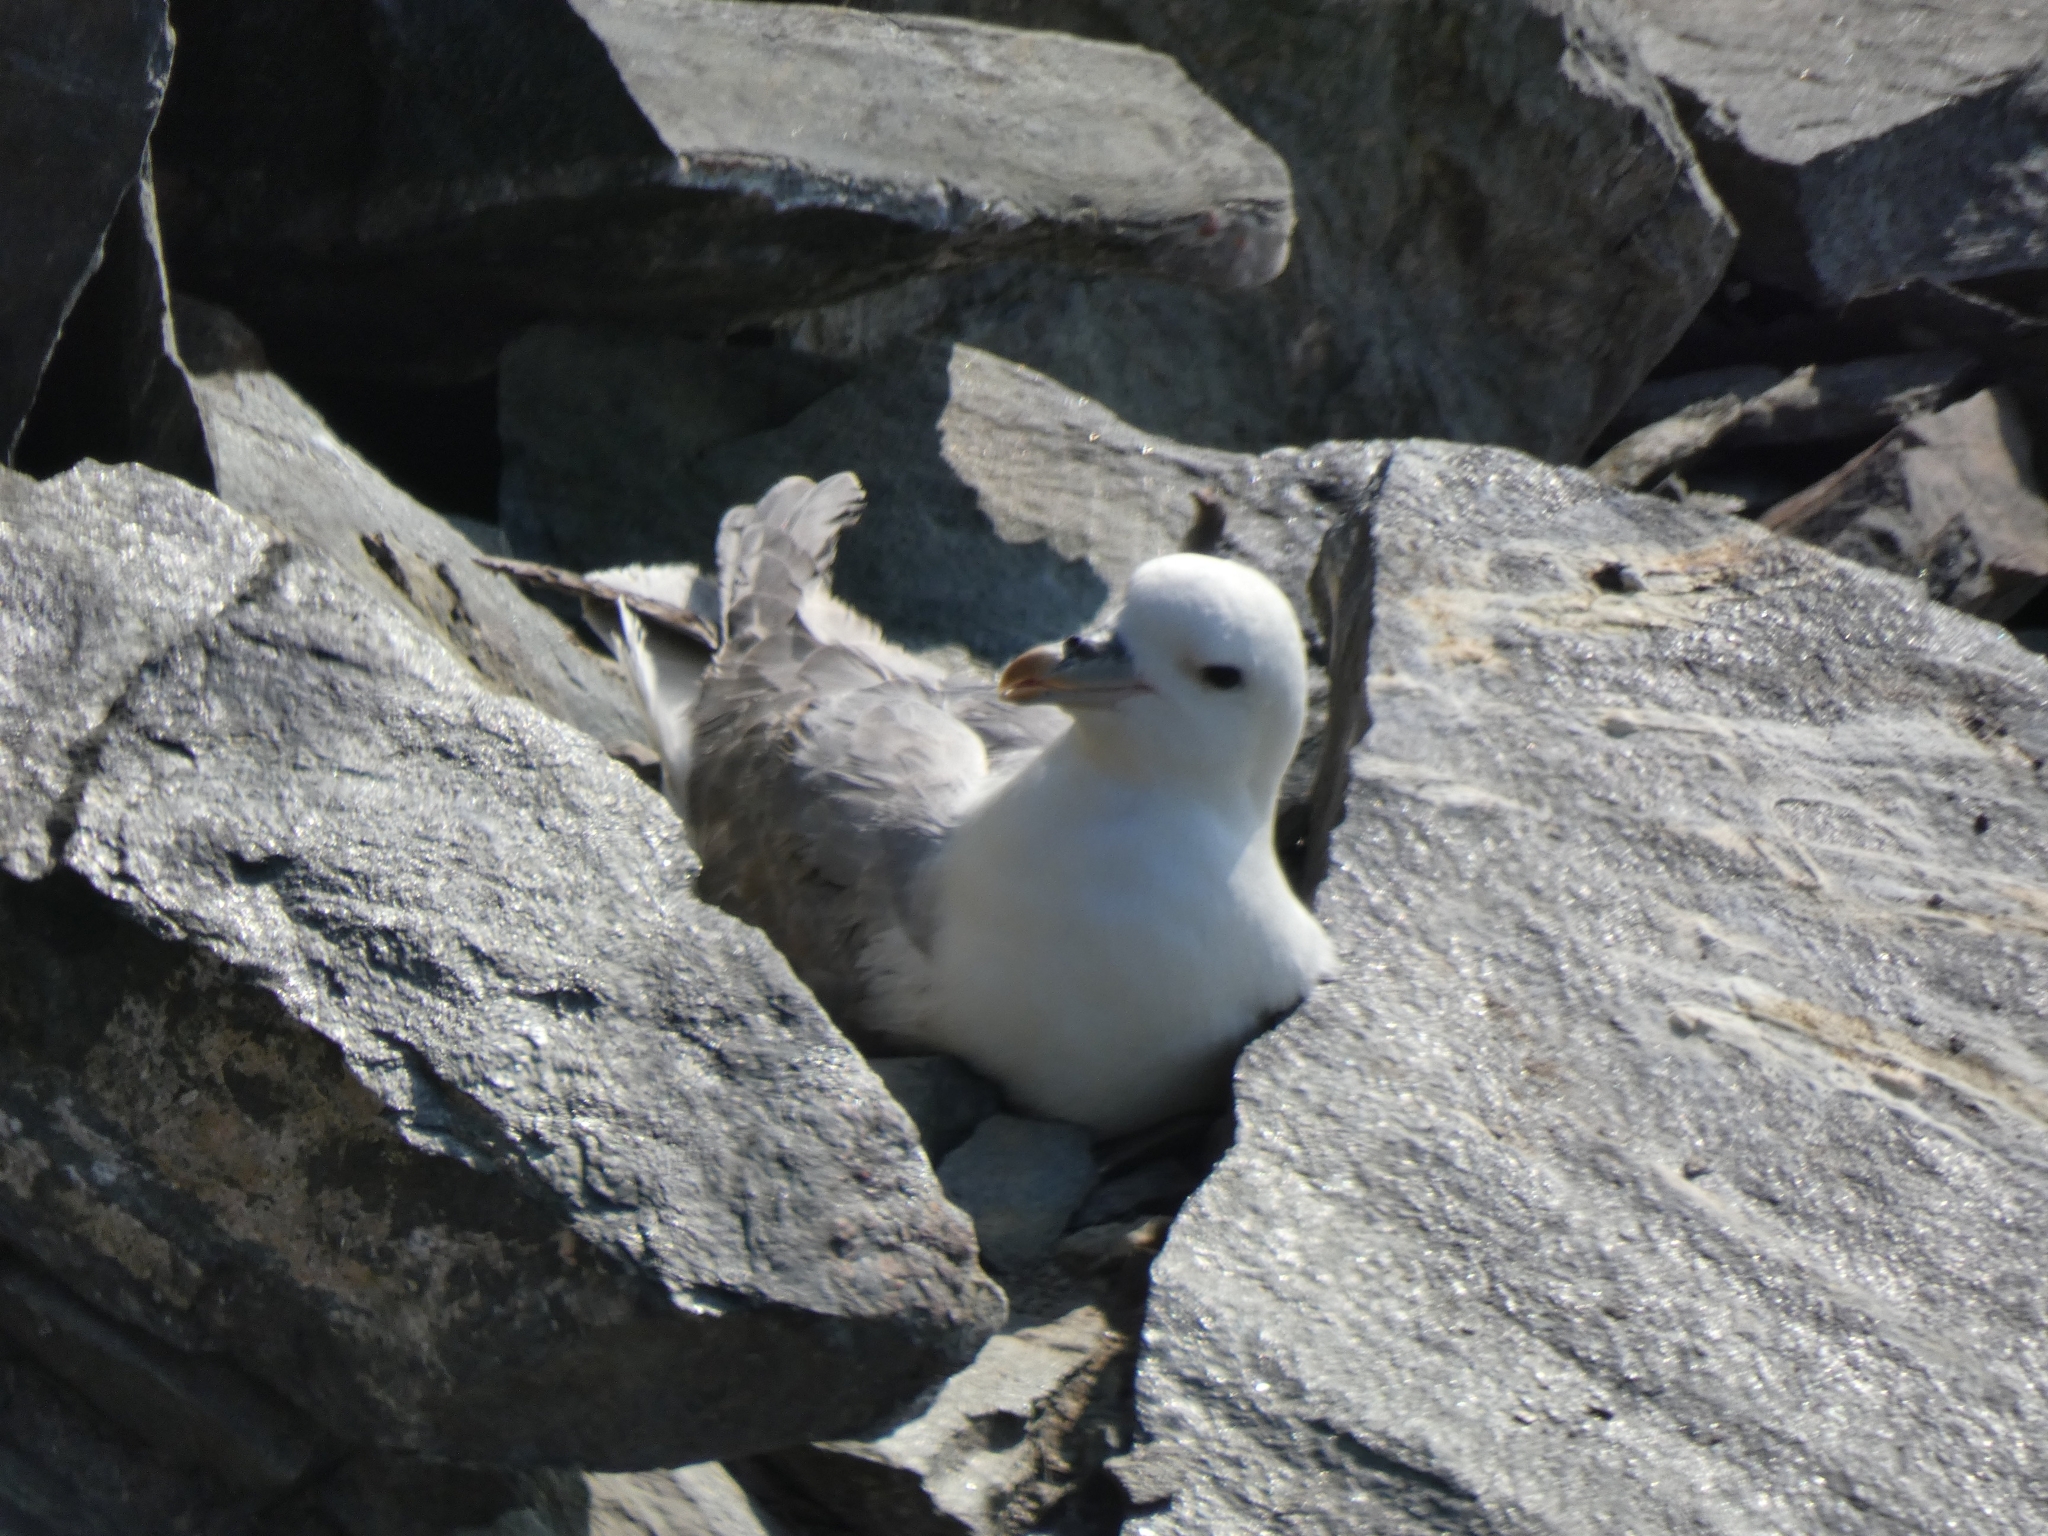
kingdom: Animalia
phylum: Chordata
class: Aves
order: Procellariiformes
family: Procellariidae
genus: Fulmarus
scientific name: Fulmarus glacialis
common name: Northern fulmar
